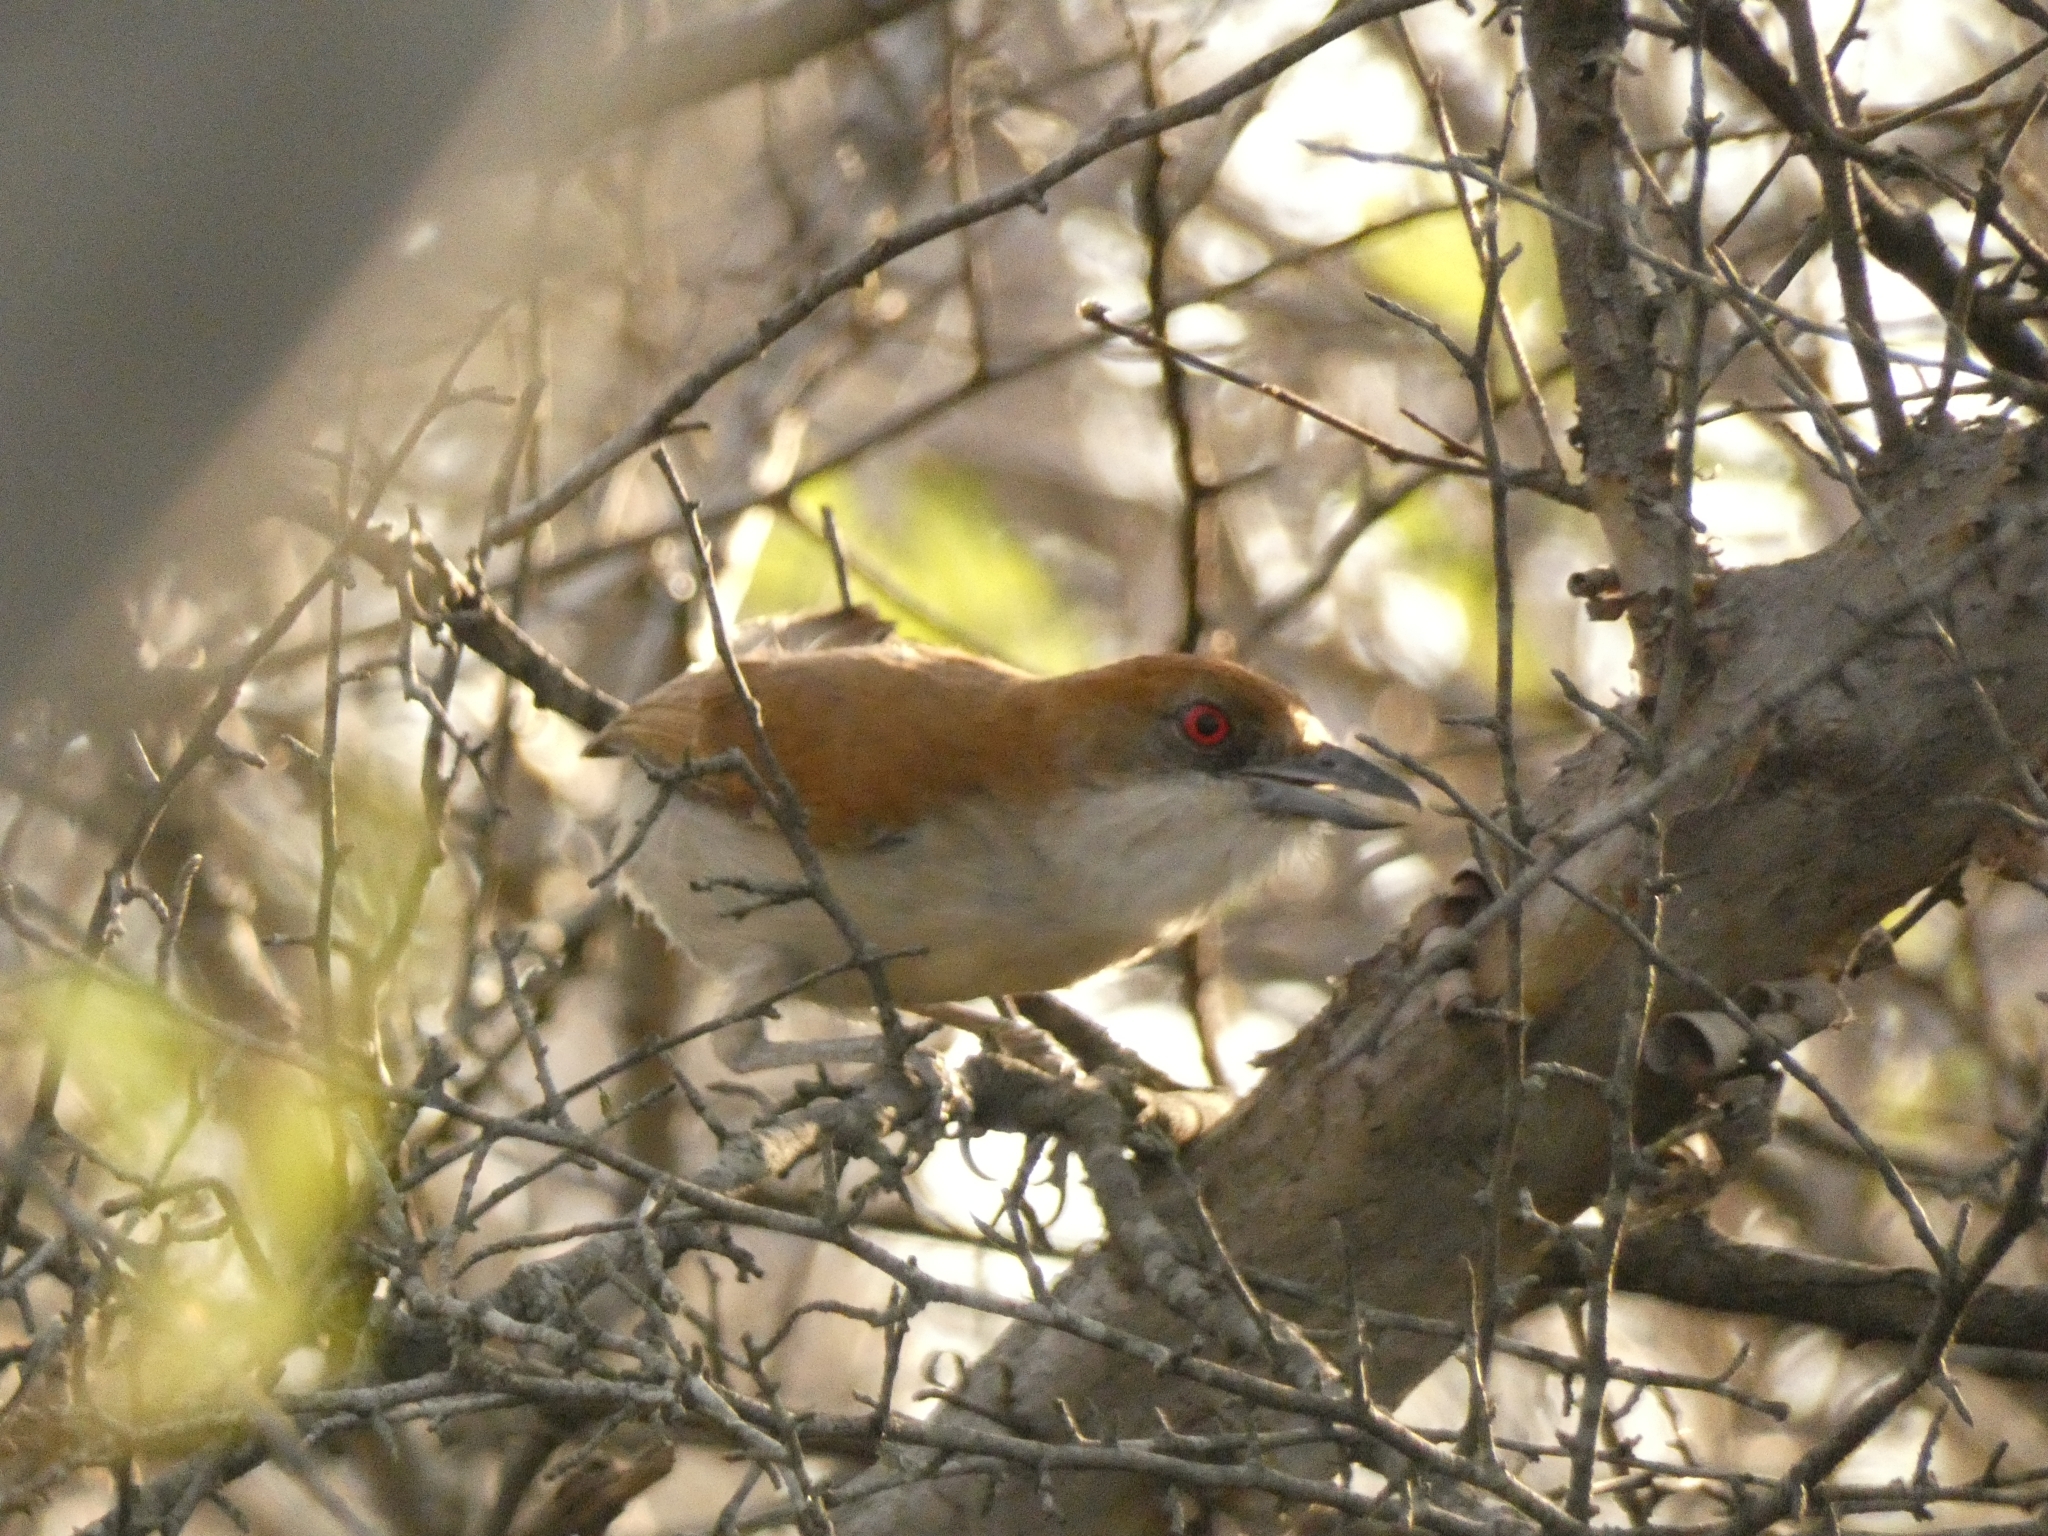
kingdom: Animalia
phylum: Chordata
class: Aves
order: Passeriformes
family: Thamnophilidae
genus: Taraba
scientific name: Taraba major
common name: Great antshrike
